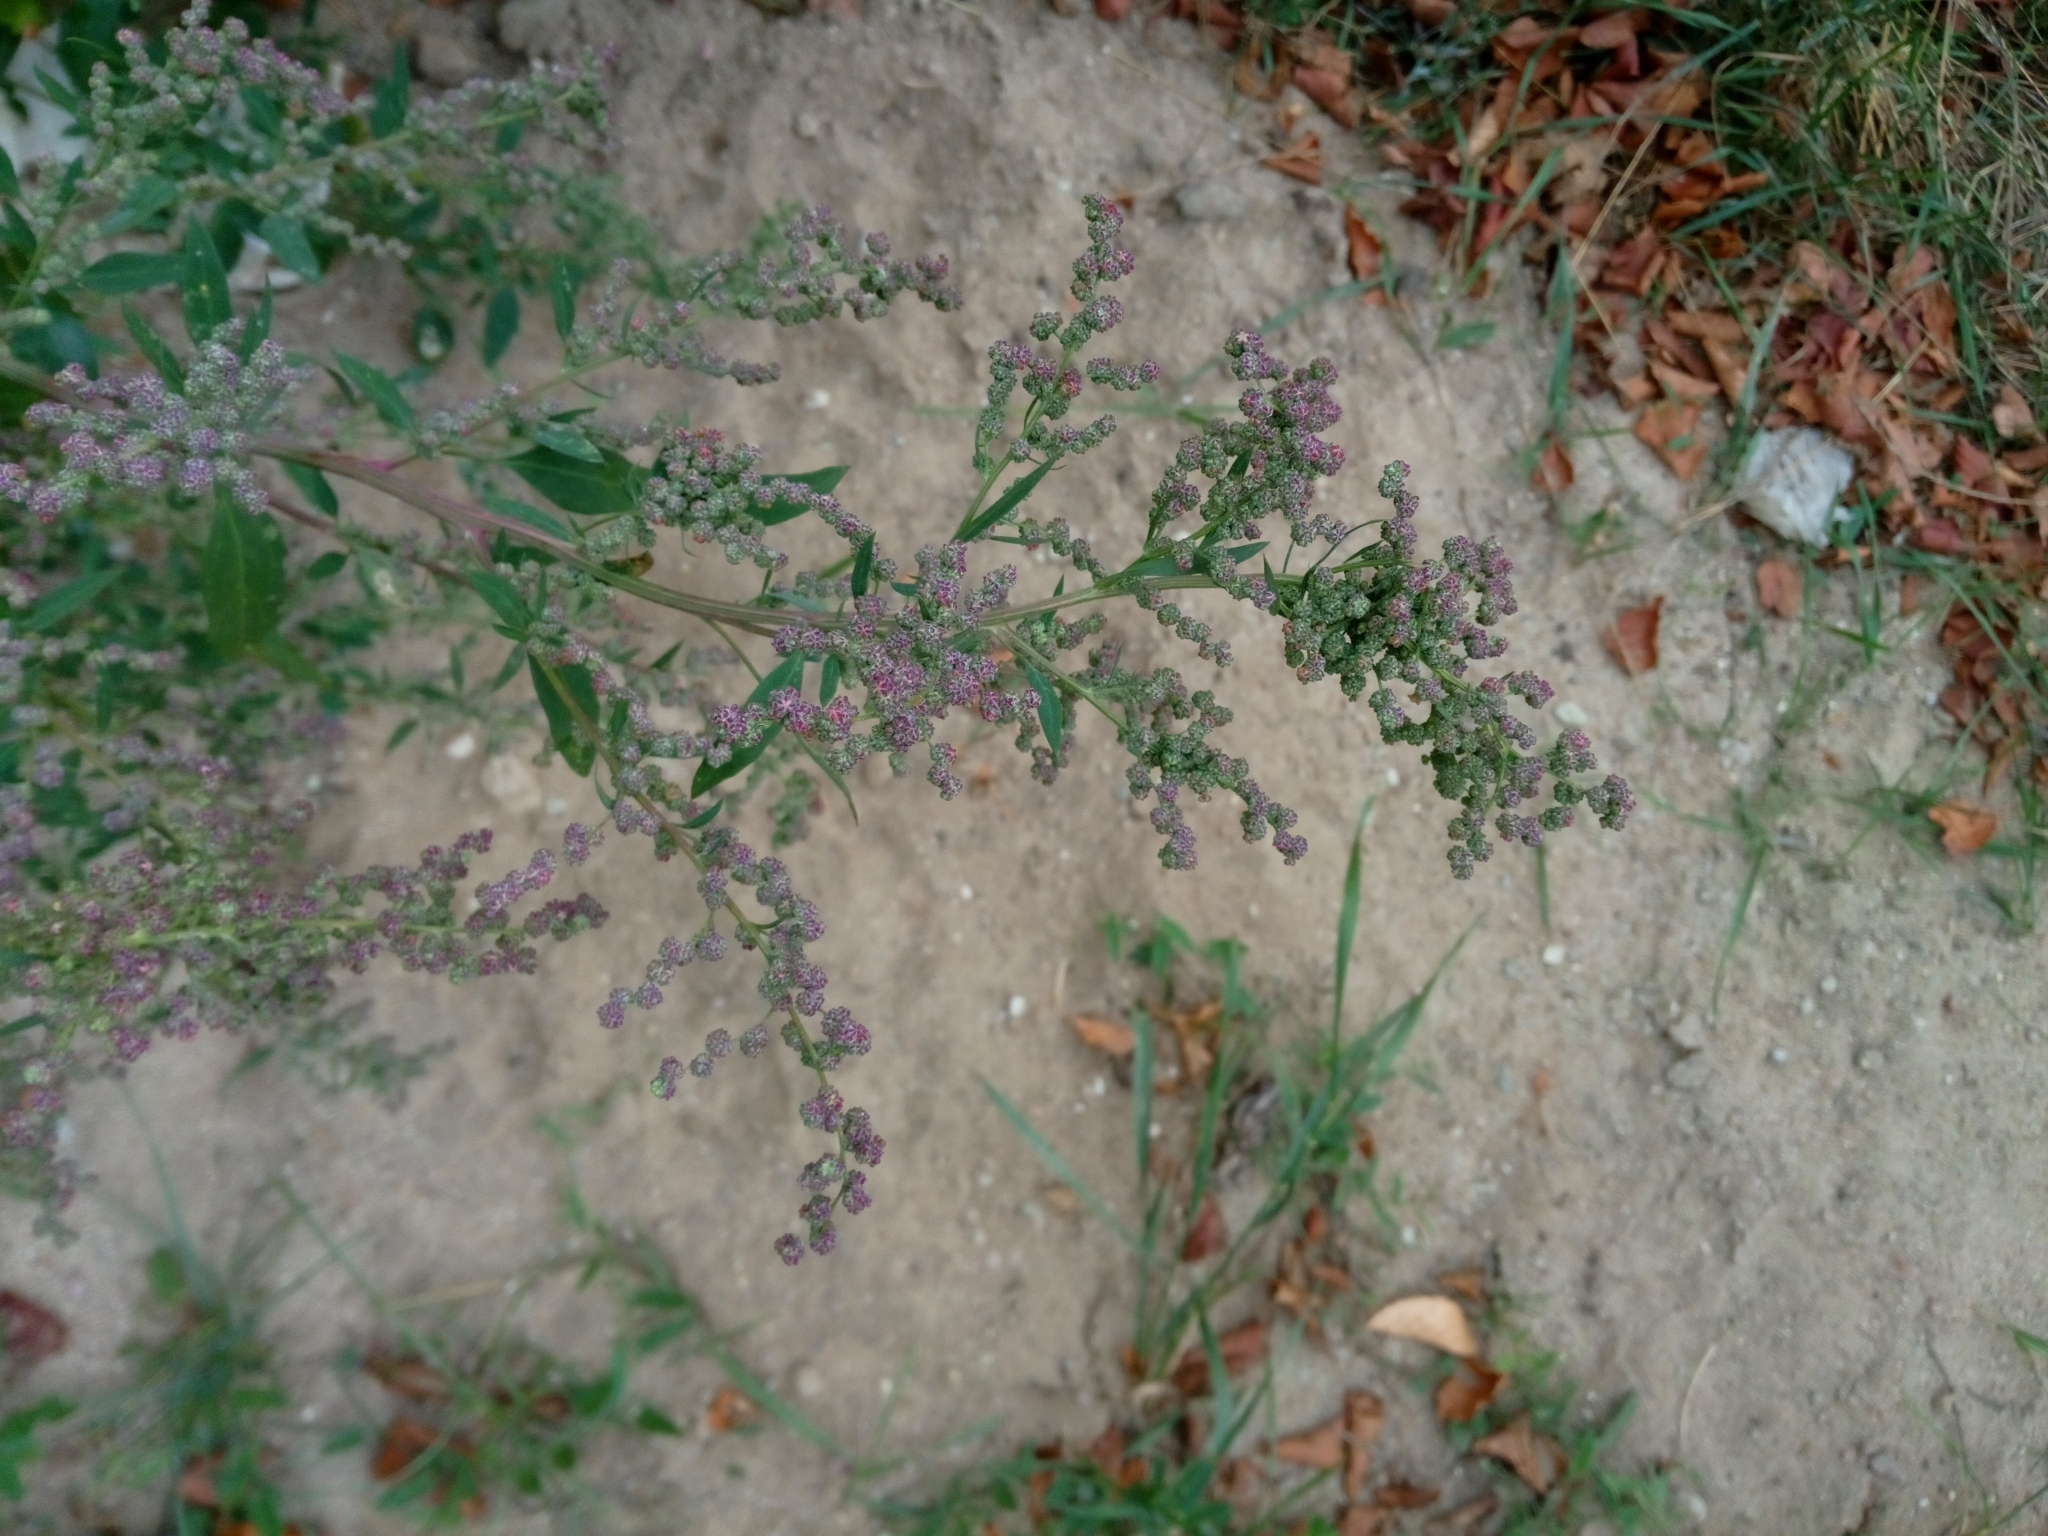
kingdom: Plantae
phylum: Tracheophyta
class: Magnoliopsida
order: Caryophyllales
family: Amaranthaceae
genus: Chenopodium
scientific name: Chenopodium album
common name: Fat-hen
